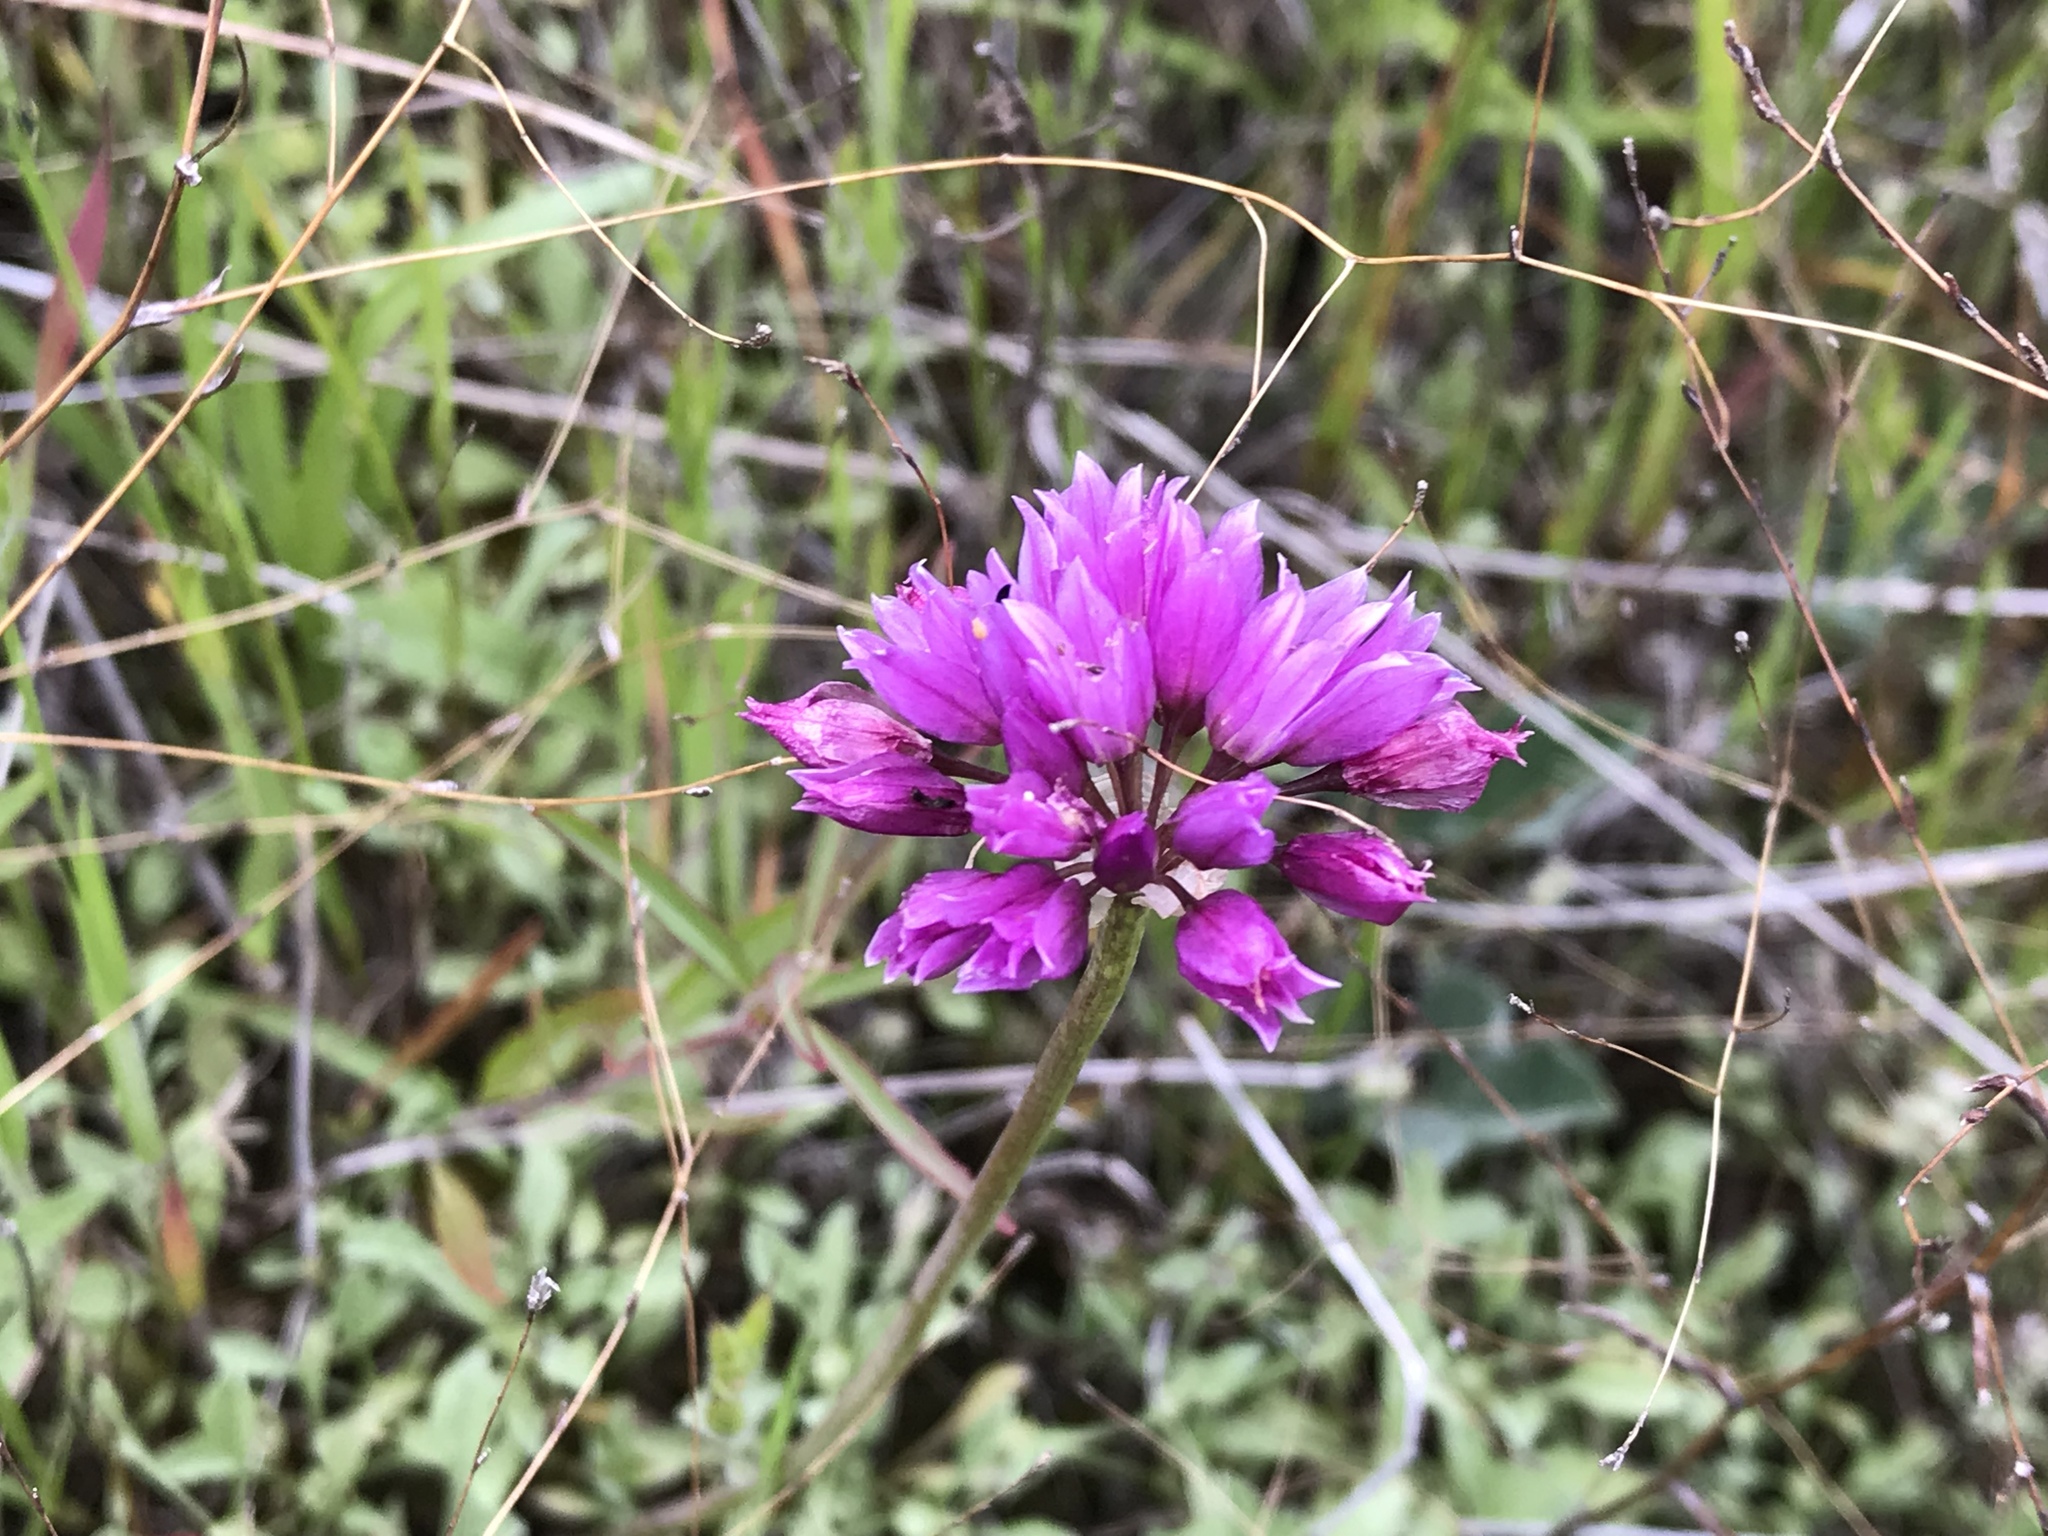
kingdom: Plantae
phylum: Tracheophyta
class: Liliopsida
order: Asparagales
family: Amaryllidaceae
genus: Allium
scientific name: Allium serra
